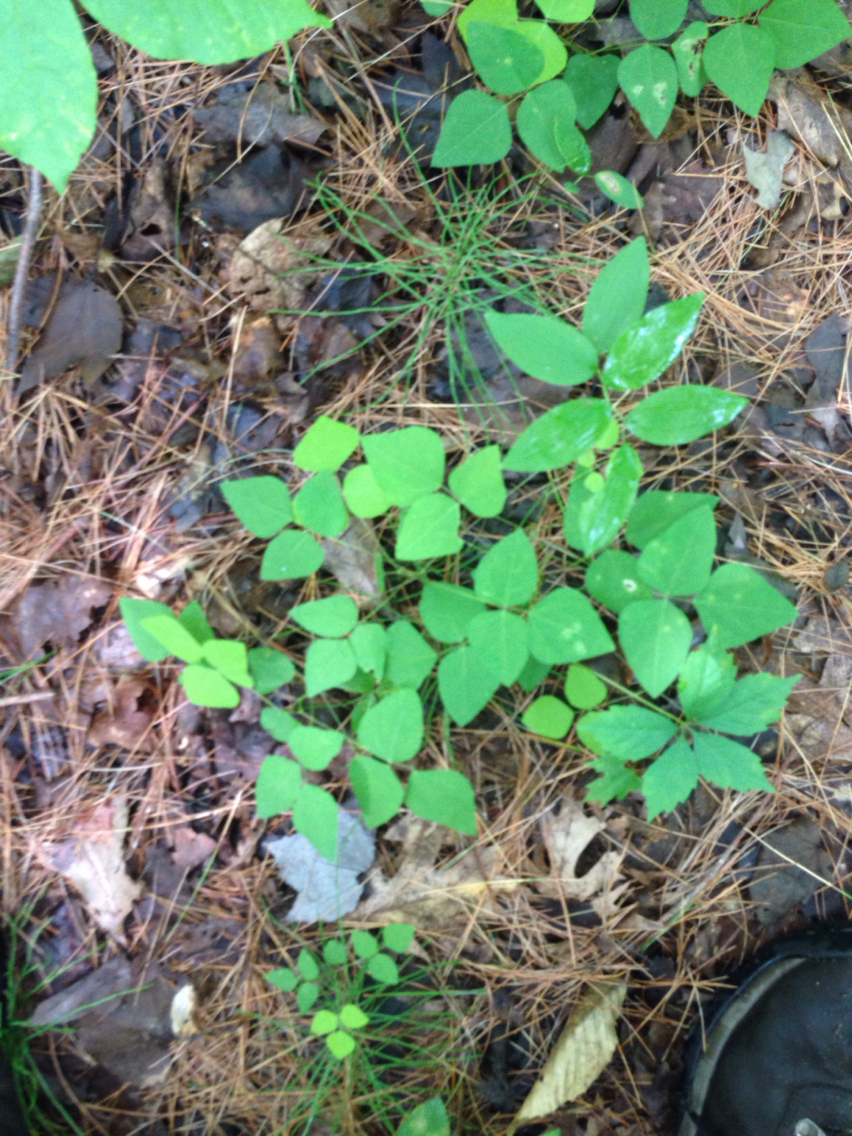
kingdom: Plantae
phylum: Tracheophyta
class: Magnoliopsida
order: Fabales
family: Fabaceae
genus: Amphicarpaea
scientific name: Amphicarpaea bracteata
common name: American hog peanut
